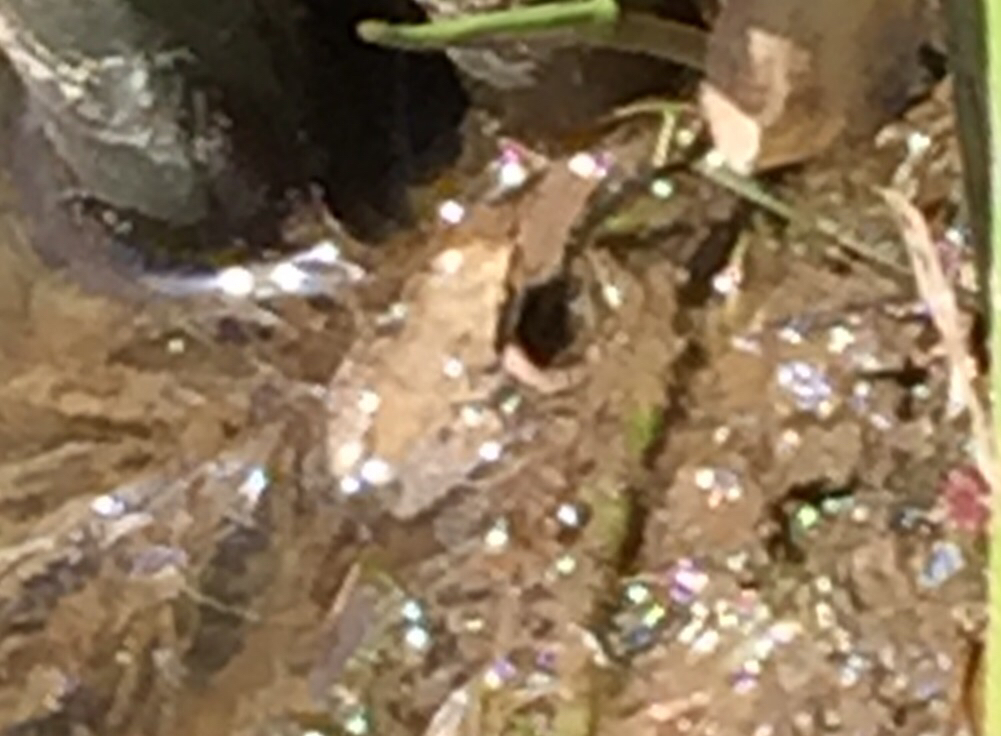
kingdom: Animalia
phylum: Chordata
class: Amphibia
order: Anura
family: Hylidae
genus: Pseudacris
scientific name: Pseudacris regilla
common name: Pacific chorus frog
